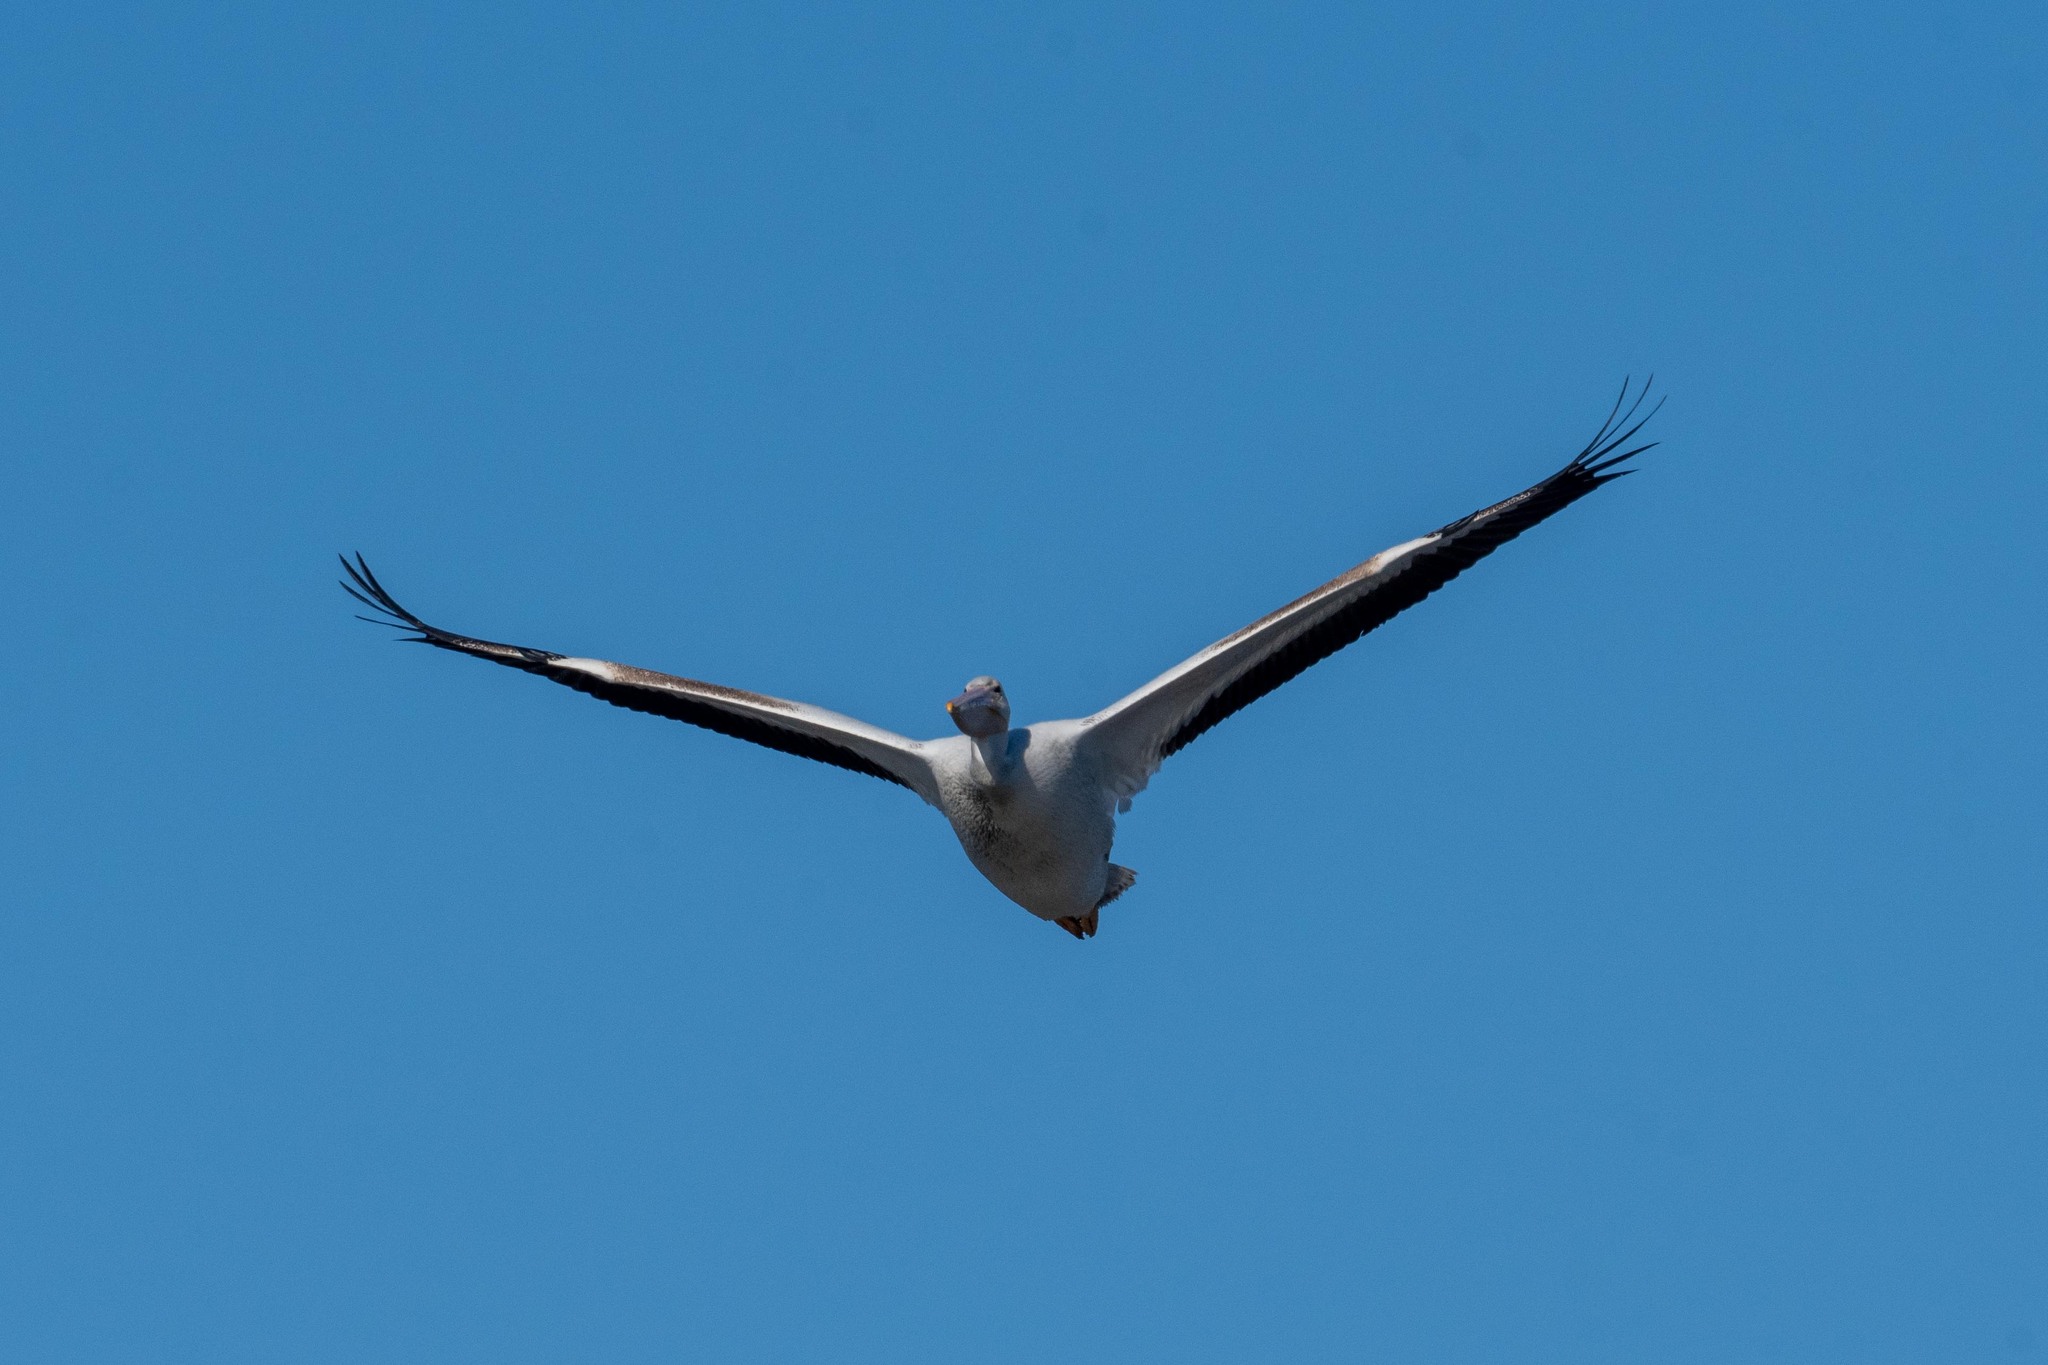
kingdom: Animalia
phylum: Chordata
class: Aves
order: Pelecaniformes
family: Pelecanidae
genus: Pelecanus
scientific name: Pelecanus erythrorhynchos
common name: American white pelican
